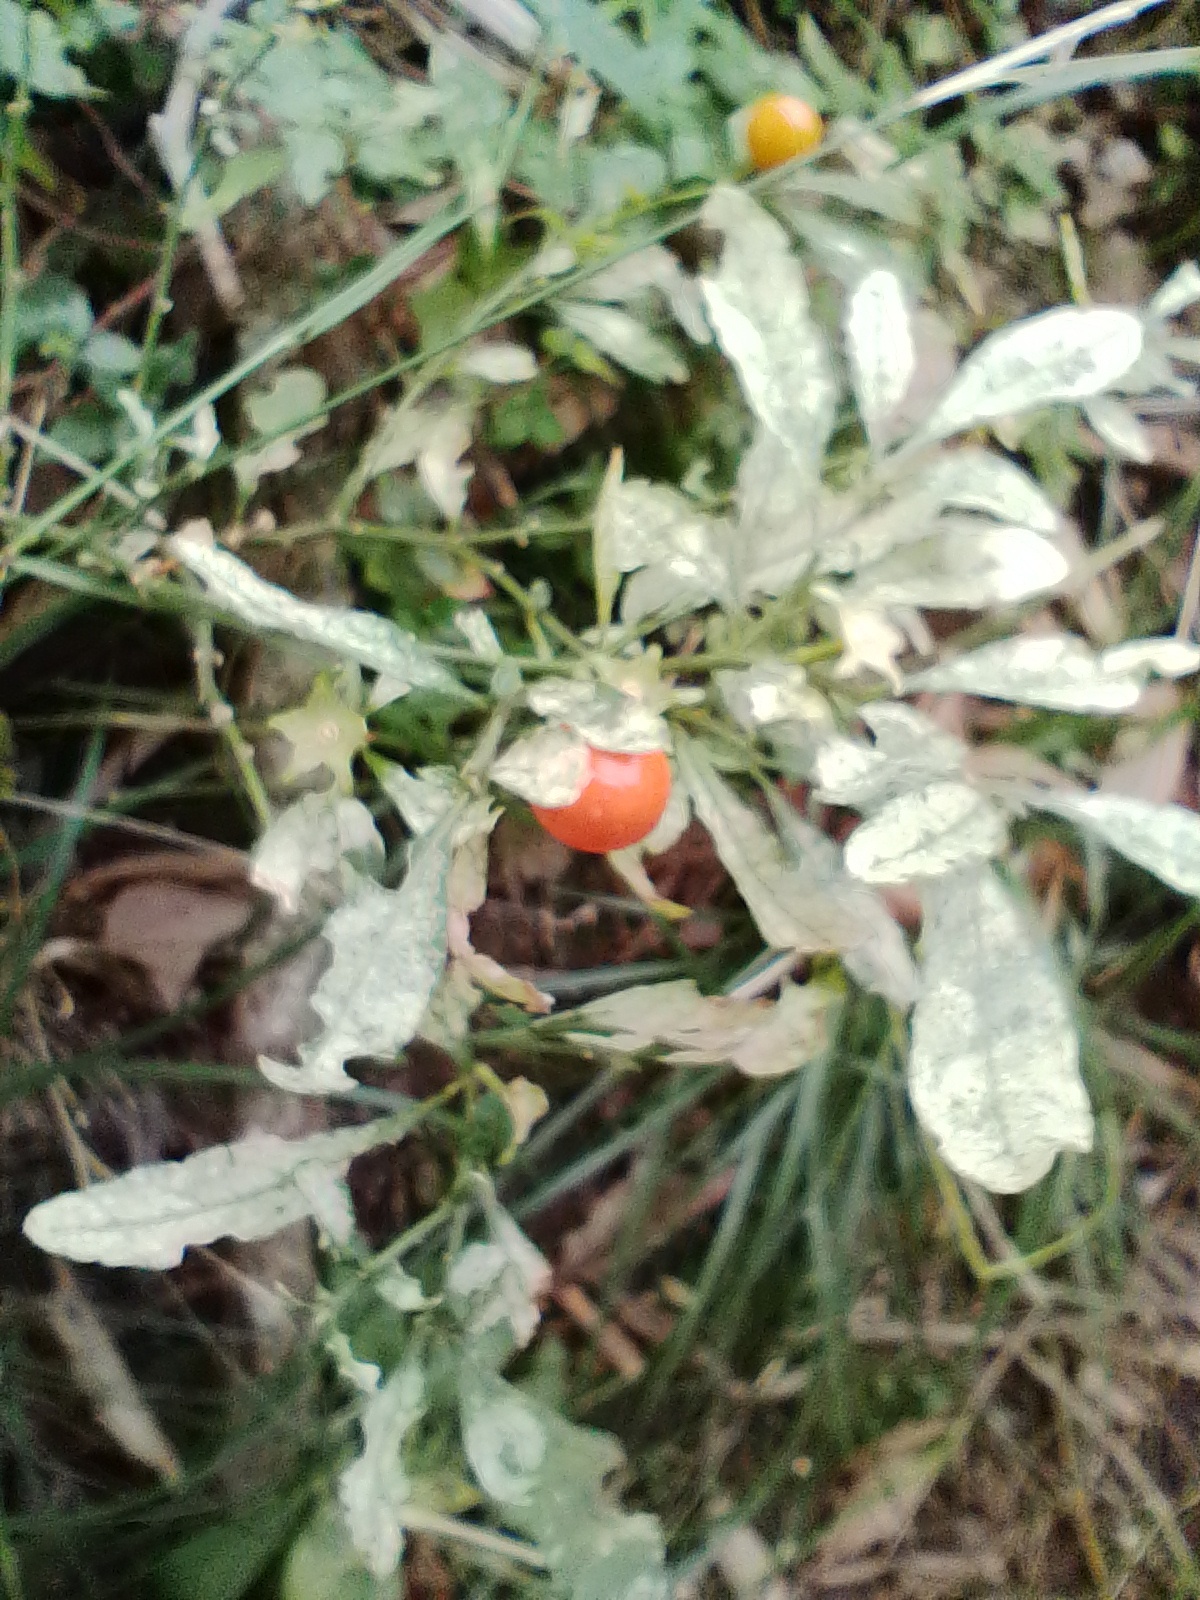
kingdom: Plantae
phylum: Tracheophyta
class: Magnoliopsida
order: Solanales
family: Solanaceae
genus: Solanum
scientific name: Solanum pseudocapsicum
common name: Jerusalem cherry
